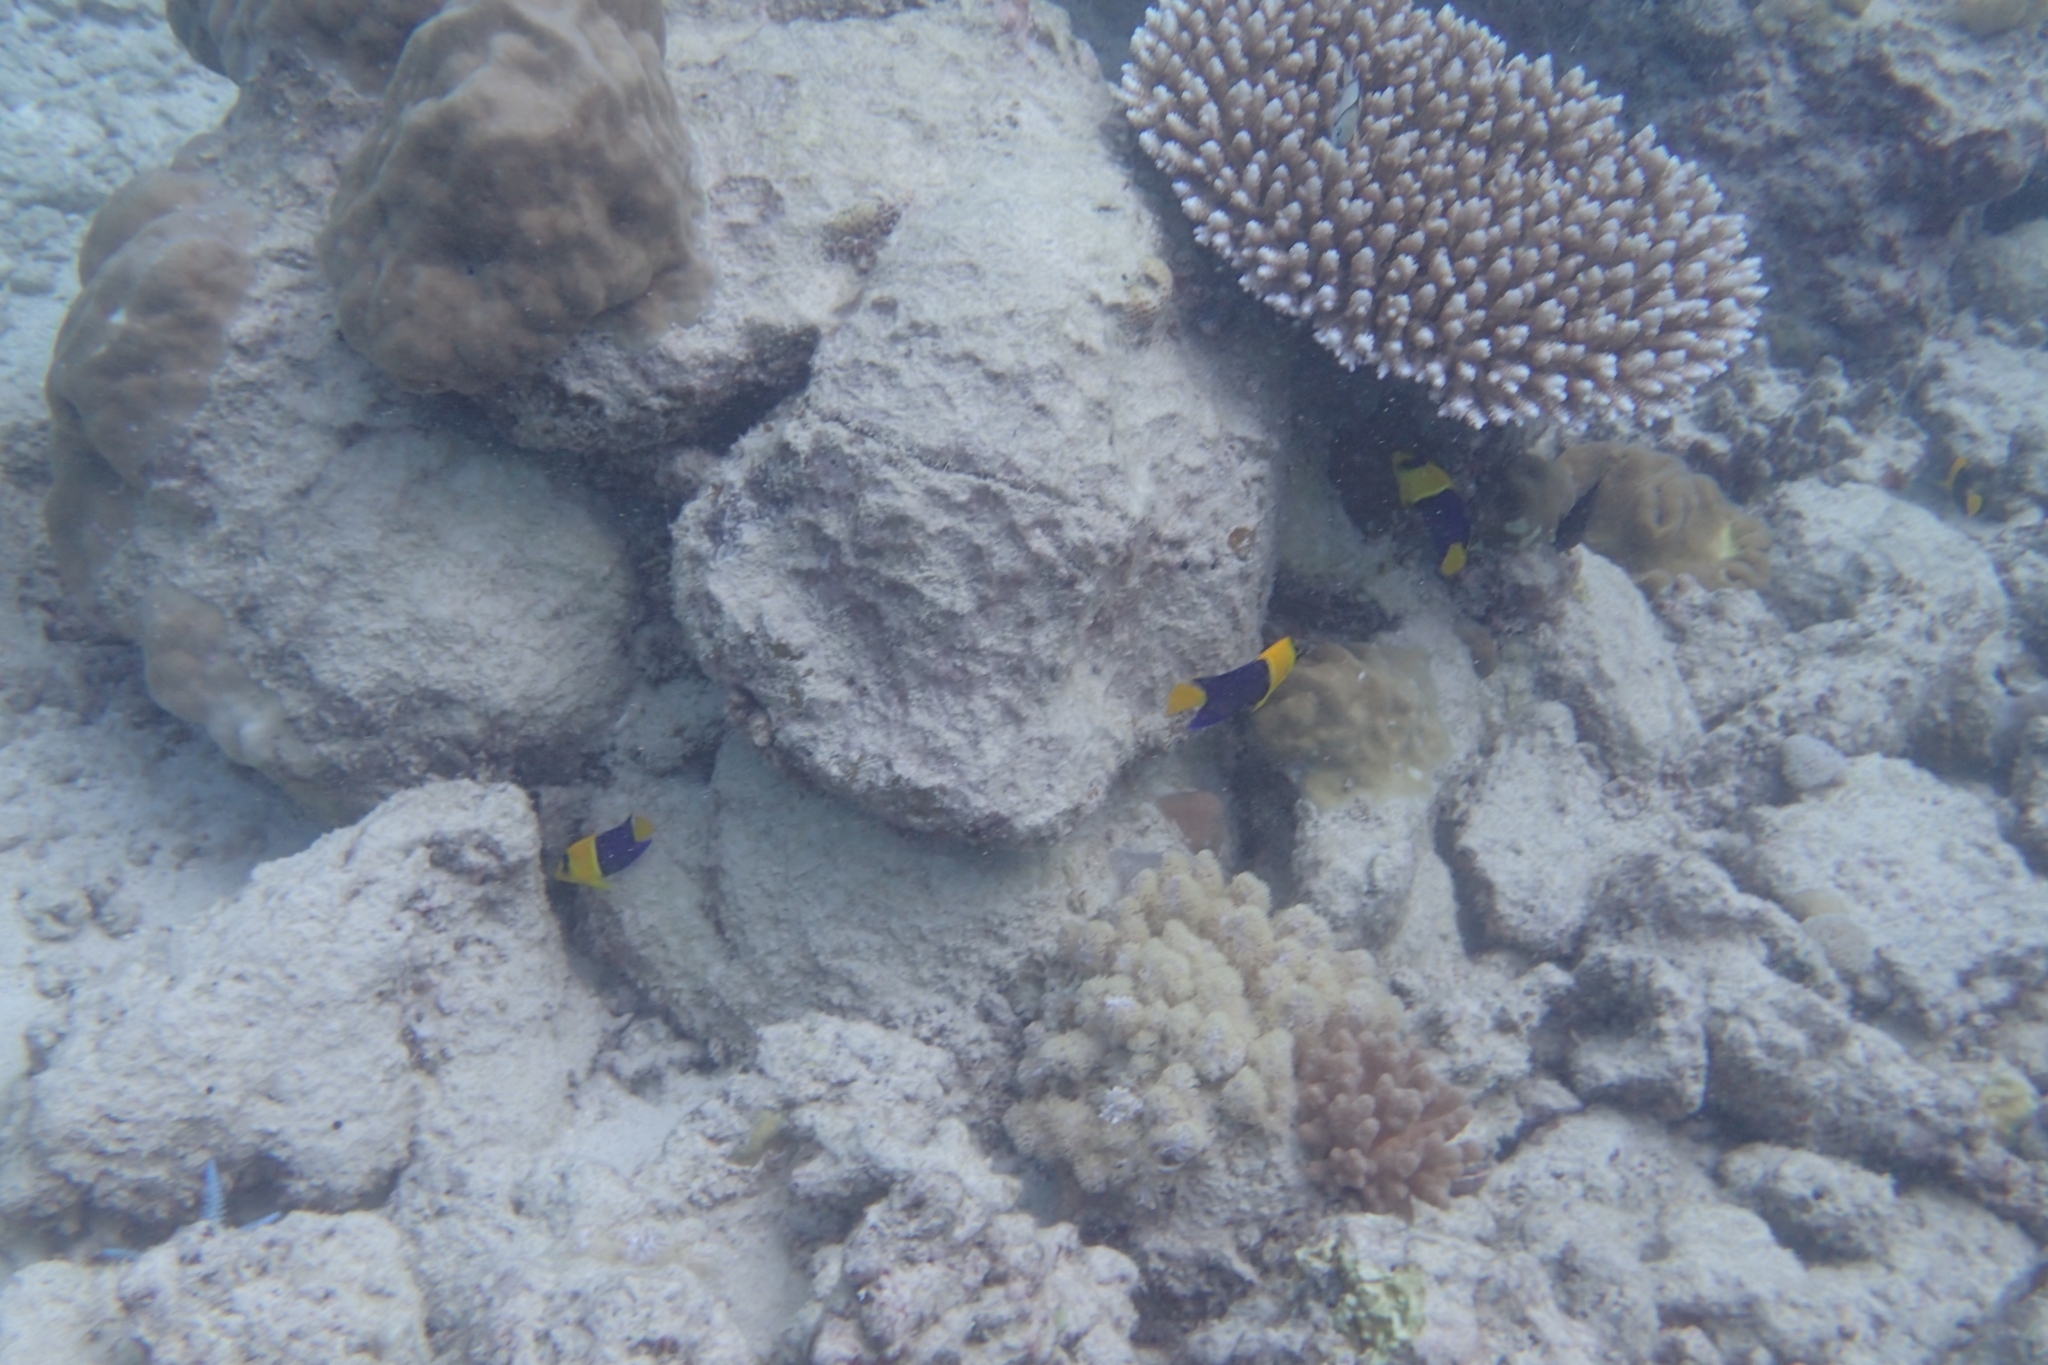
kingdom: Animalia
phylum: Chordata
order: Perciformes
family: Pomacanthidae
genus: Centropyge
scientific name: Centropyge bicolor
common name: Bicolor angelfish
